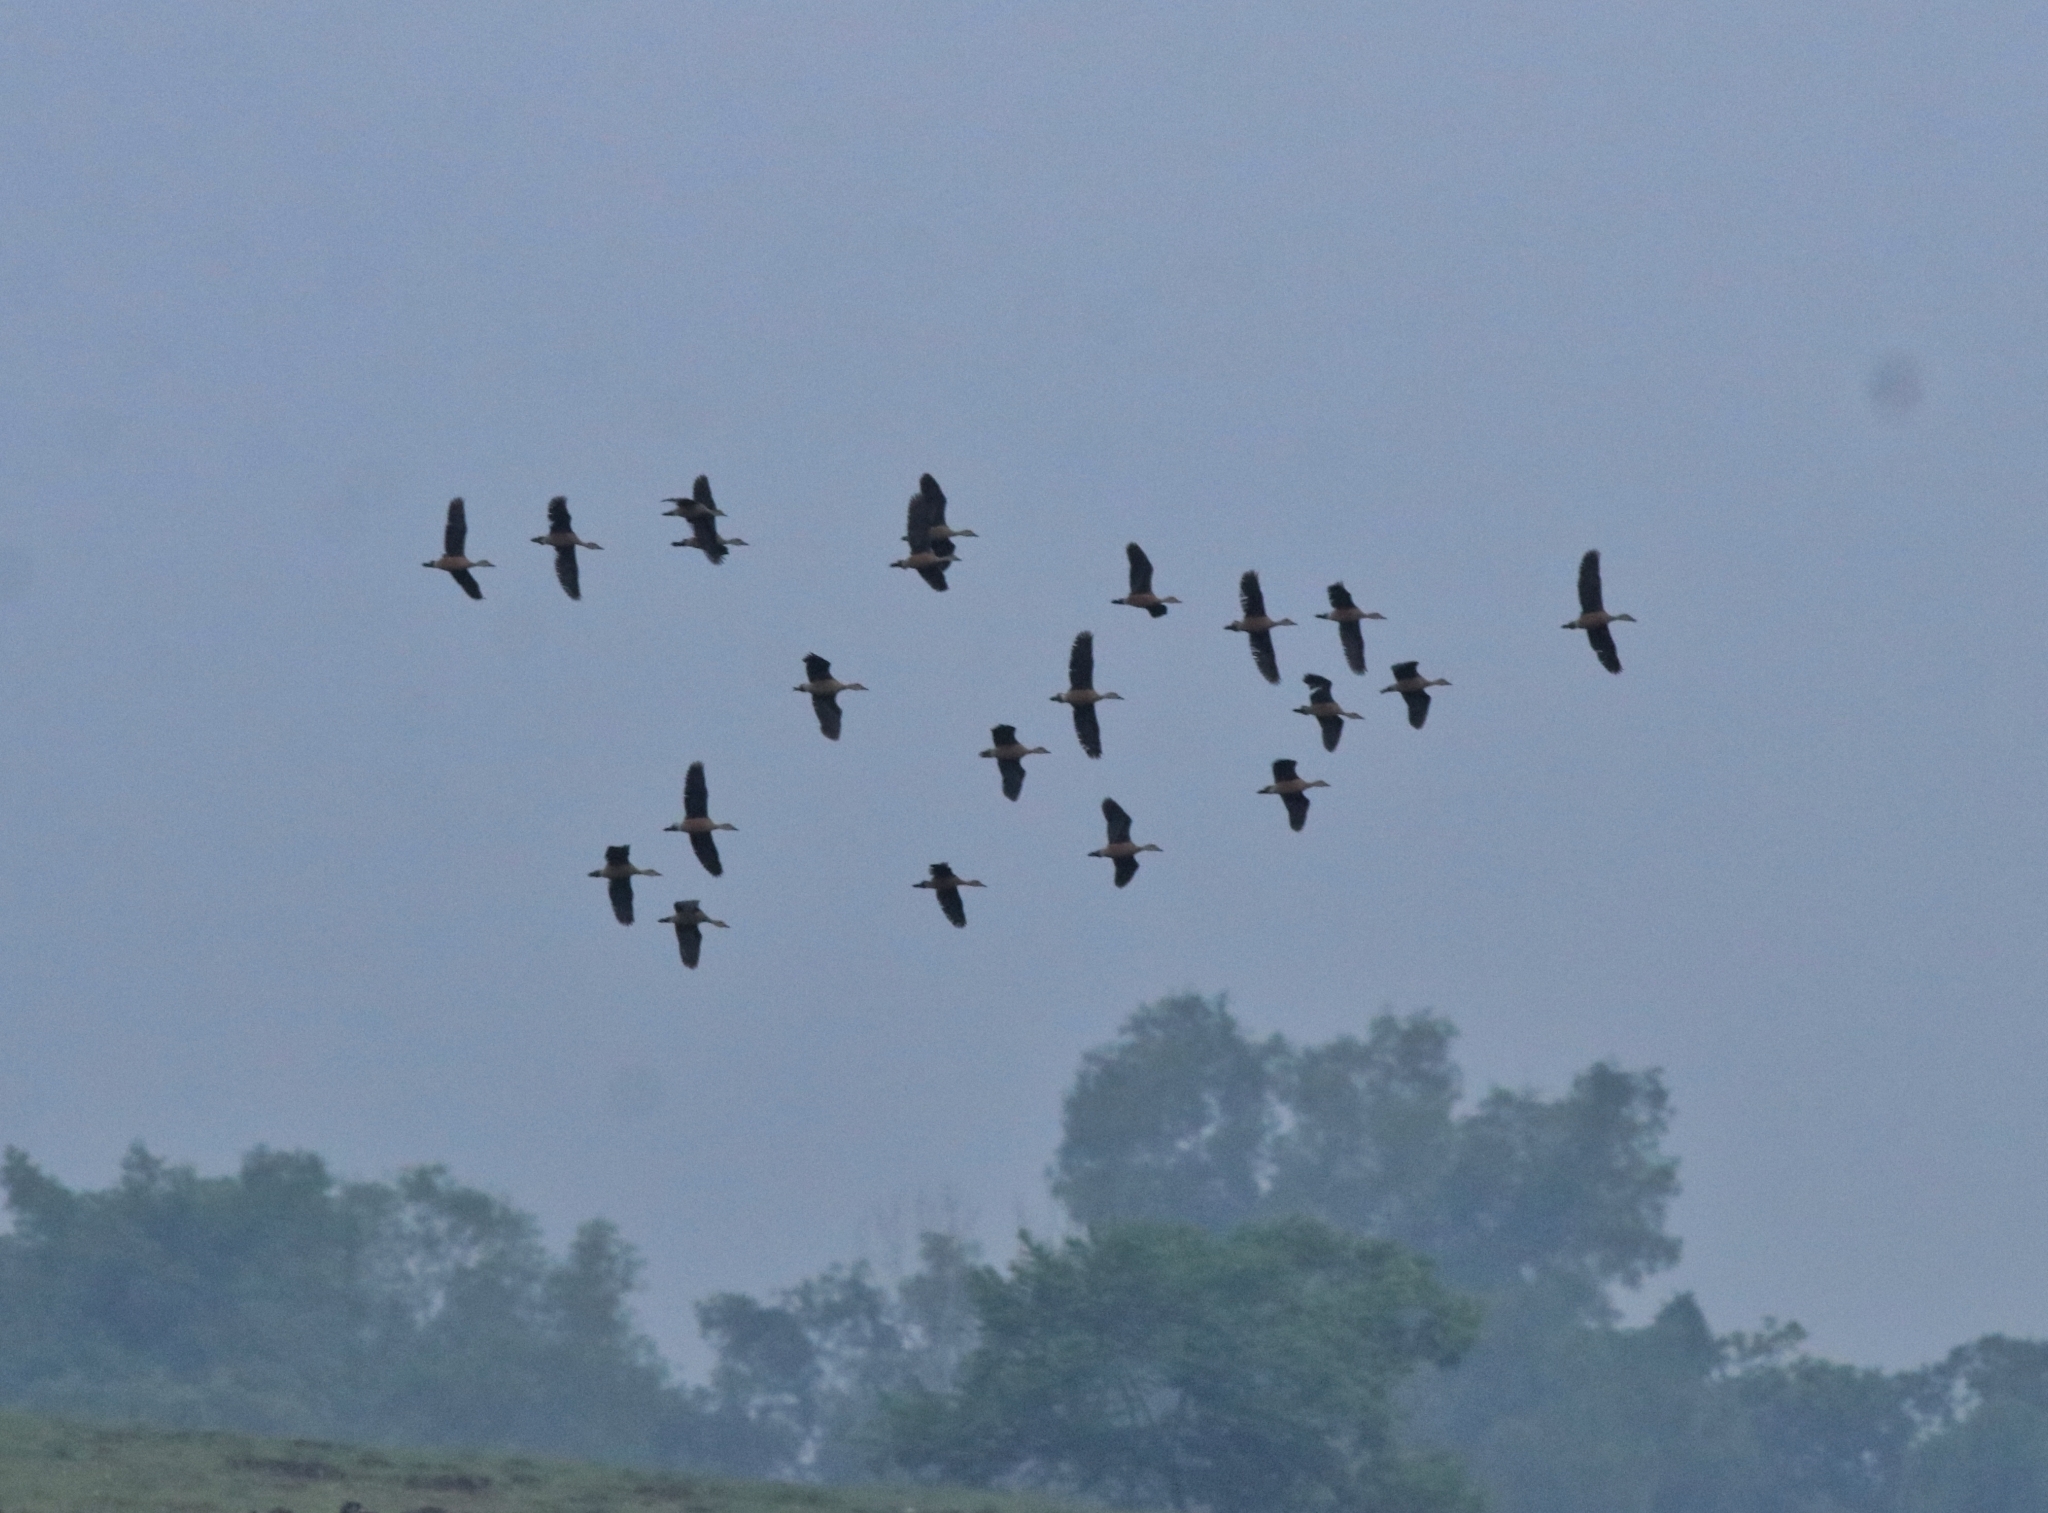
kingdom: Animalia
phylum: Chordata
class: Aves
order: Anseriformes
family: Anatidae
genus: Dendrocygna
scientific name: Dendrocygna javanica
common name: Lesser whistling-duck
